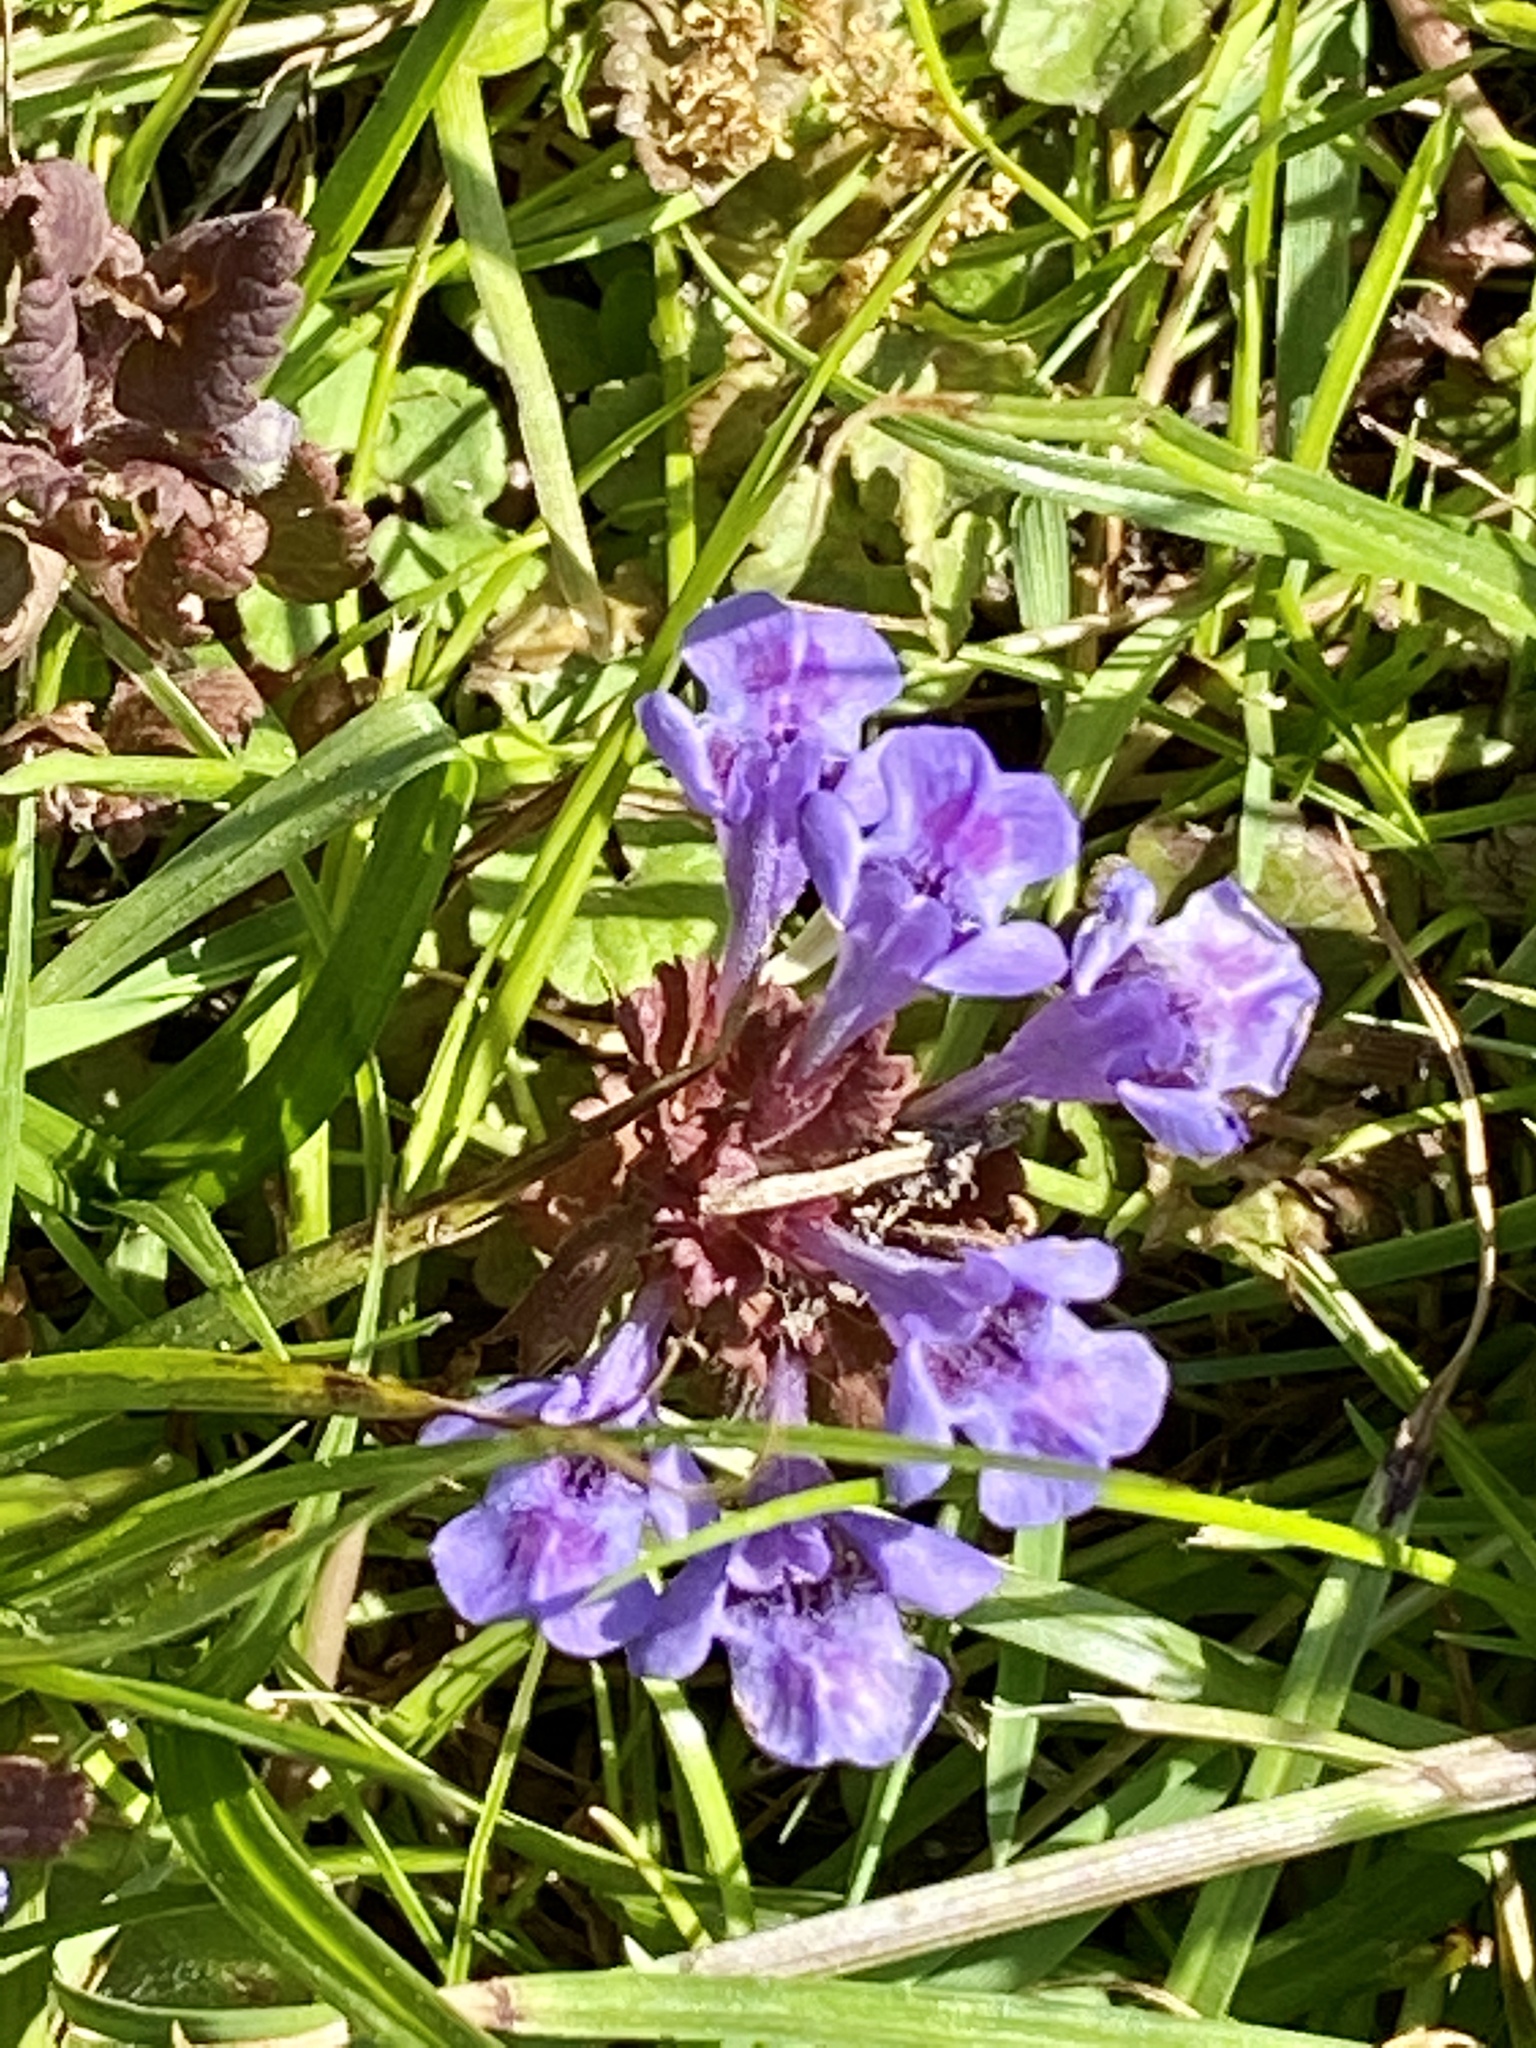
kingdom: Plantae
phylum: Tracheophyta
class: Magnoliopsida
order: Lamiales
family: Lamiaceae
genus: Glechoma
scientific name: Glechoma hederacea
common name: Ground ivy
